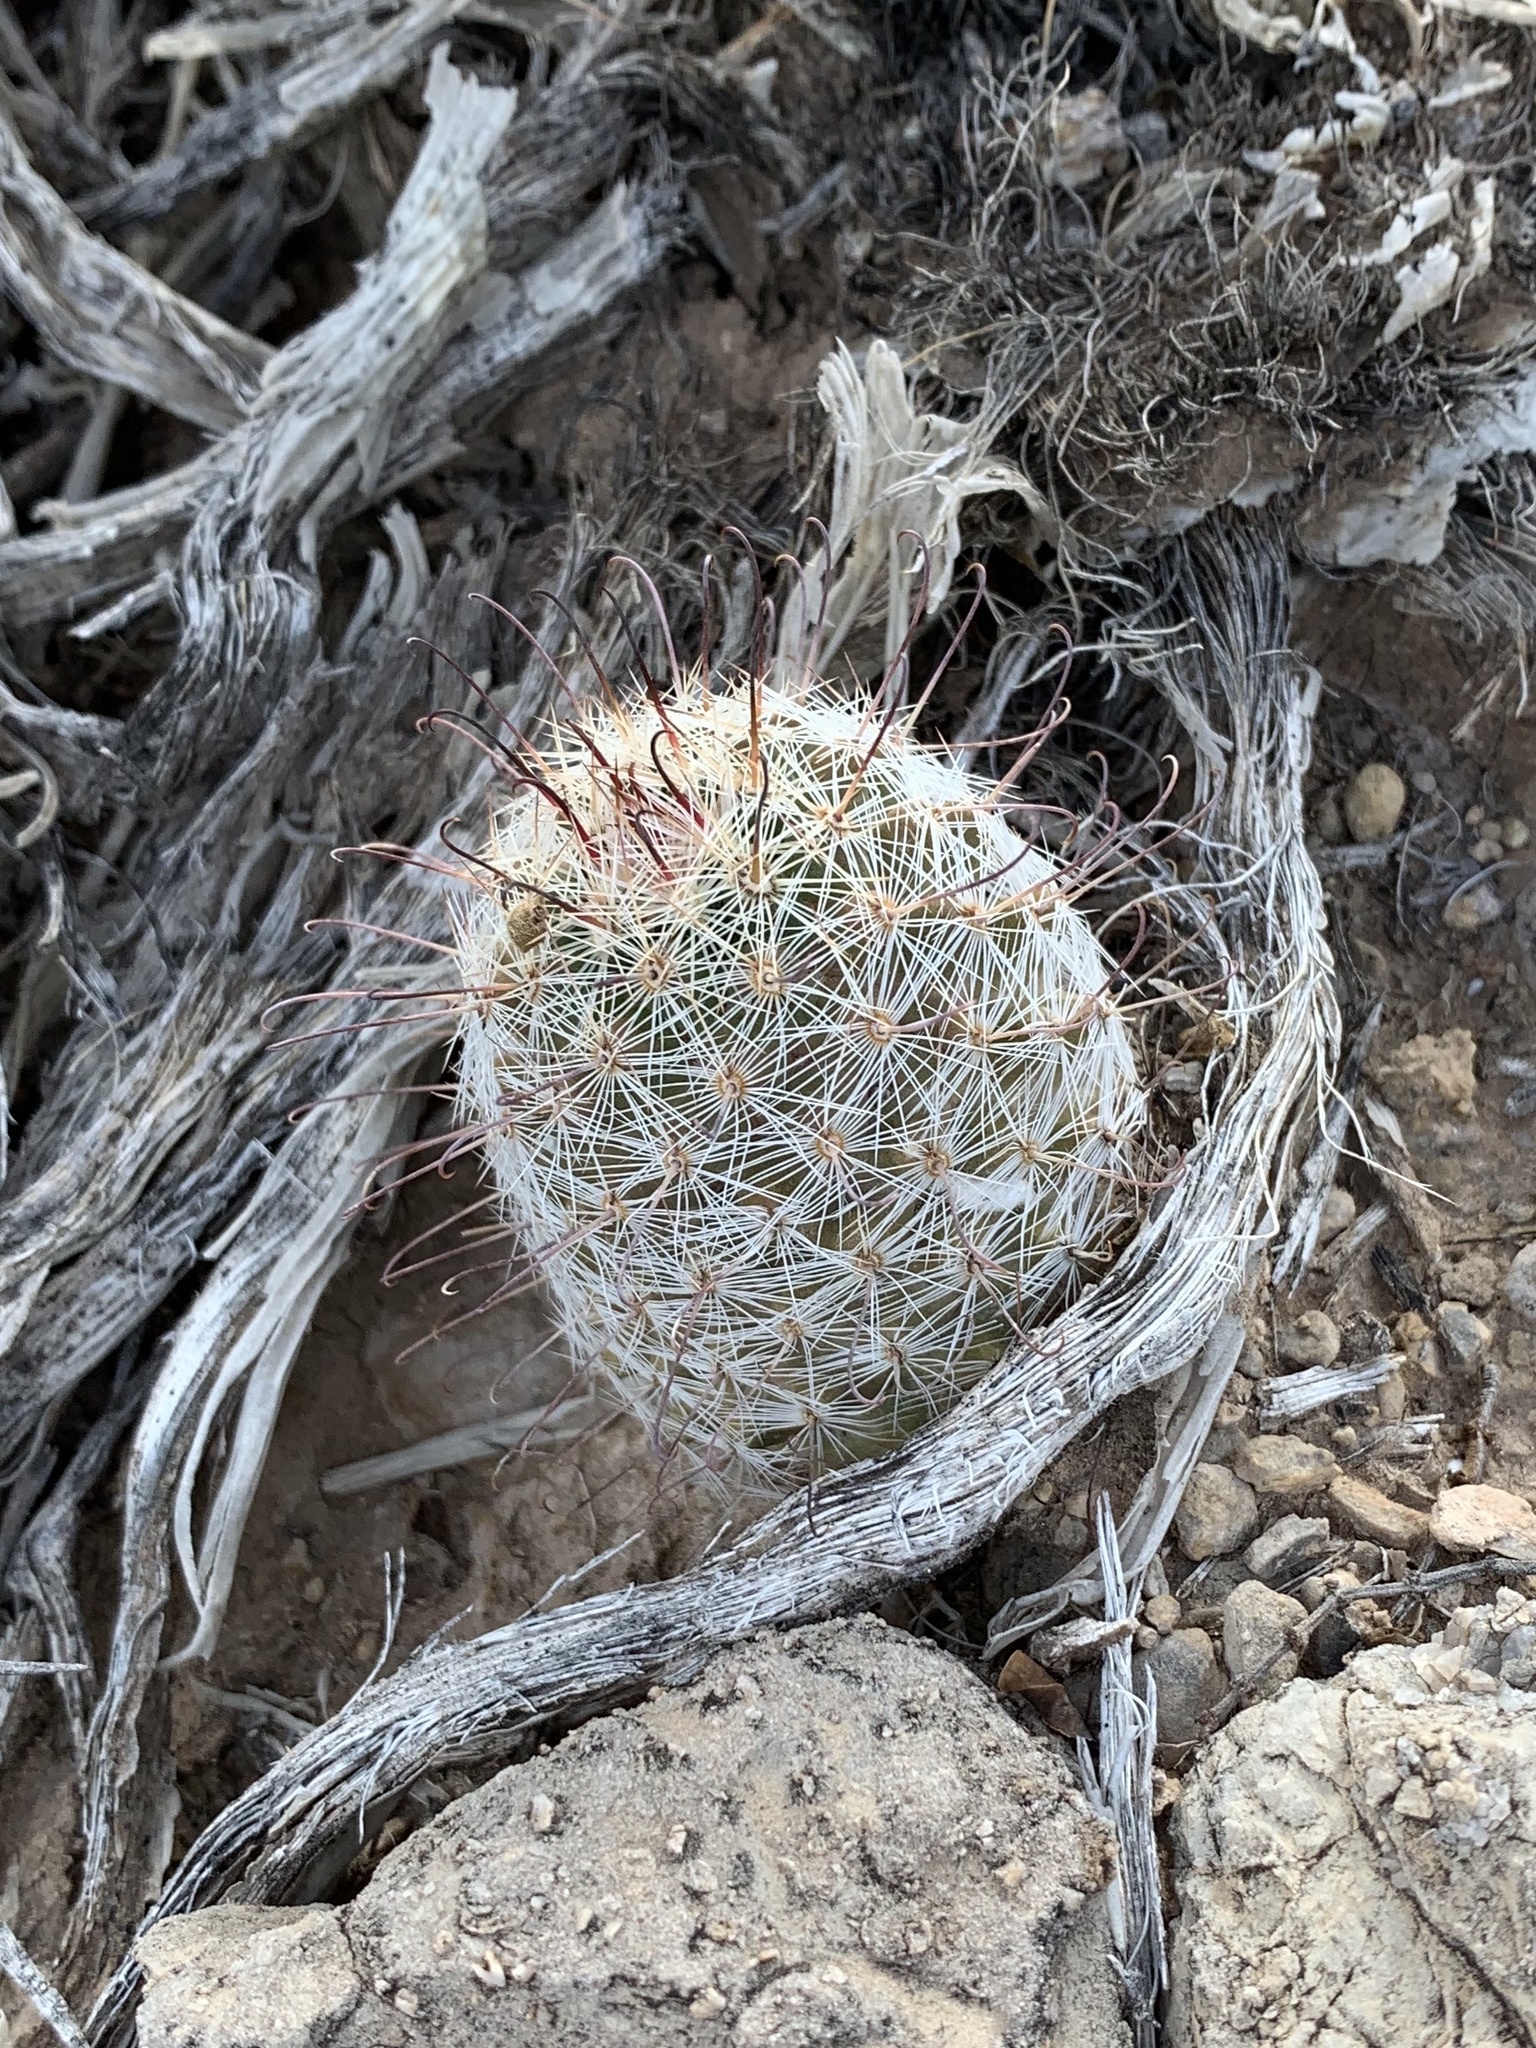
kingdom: Plantae
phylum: Tracheophyta
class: Magnoliopsida
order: Caryophyllales
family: Cactaceae
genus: Cochemiea
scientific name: Cochemiea grahamii
